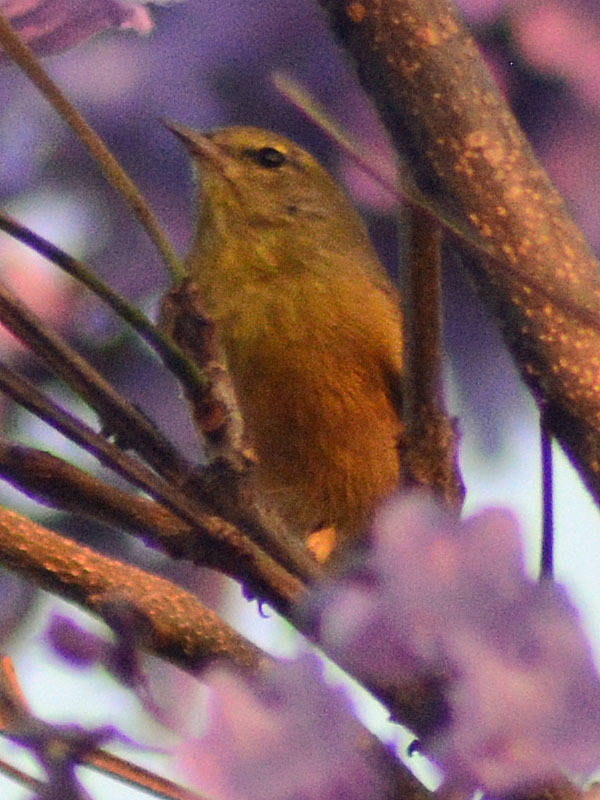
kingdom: Animalia
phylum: Chordata
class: Aves
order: Passeriformes
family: Parulidae
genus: Leiothlypis
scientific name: Leiothlypis celata
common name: Orange-crowned warbler
